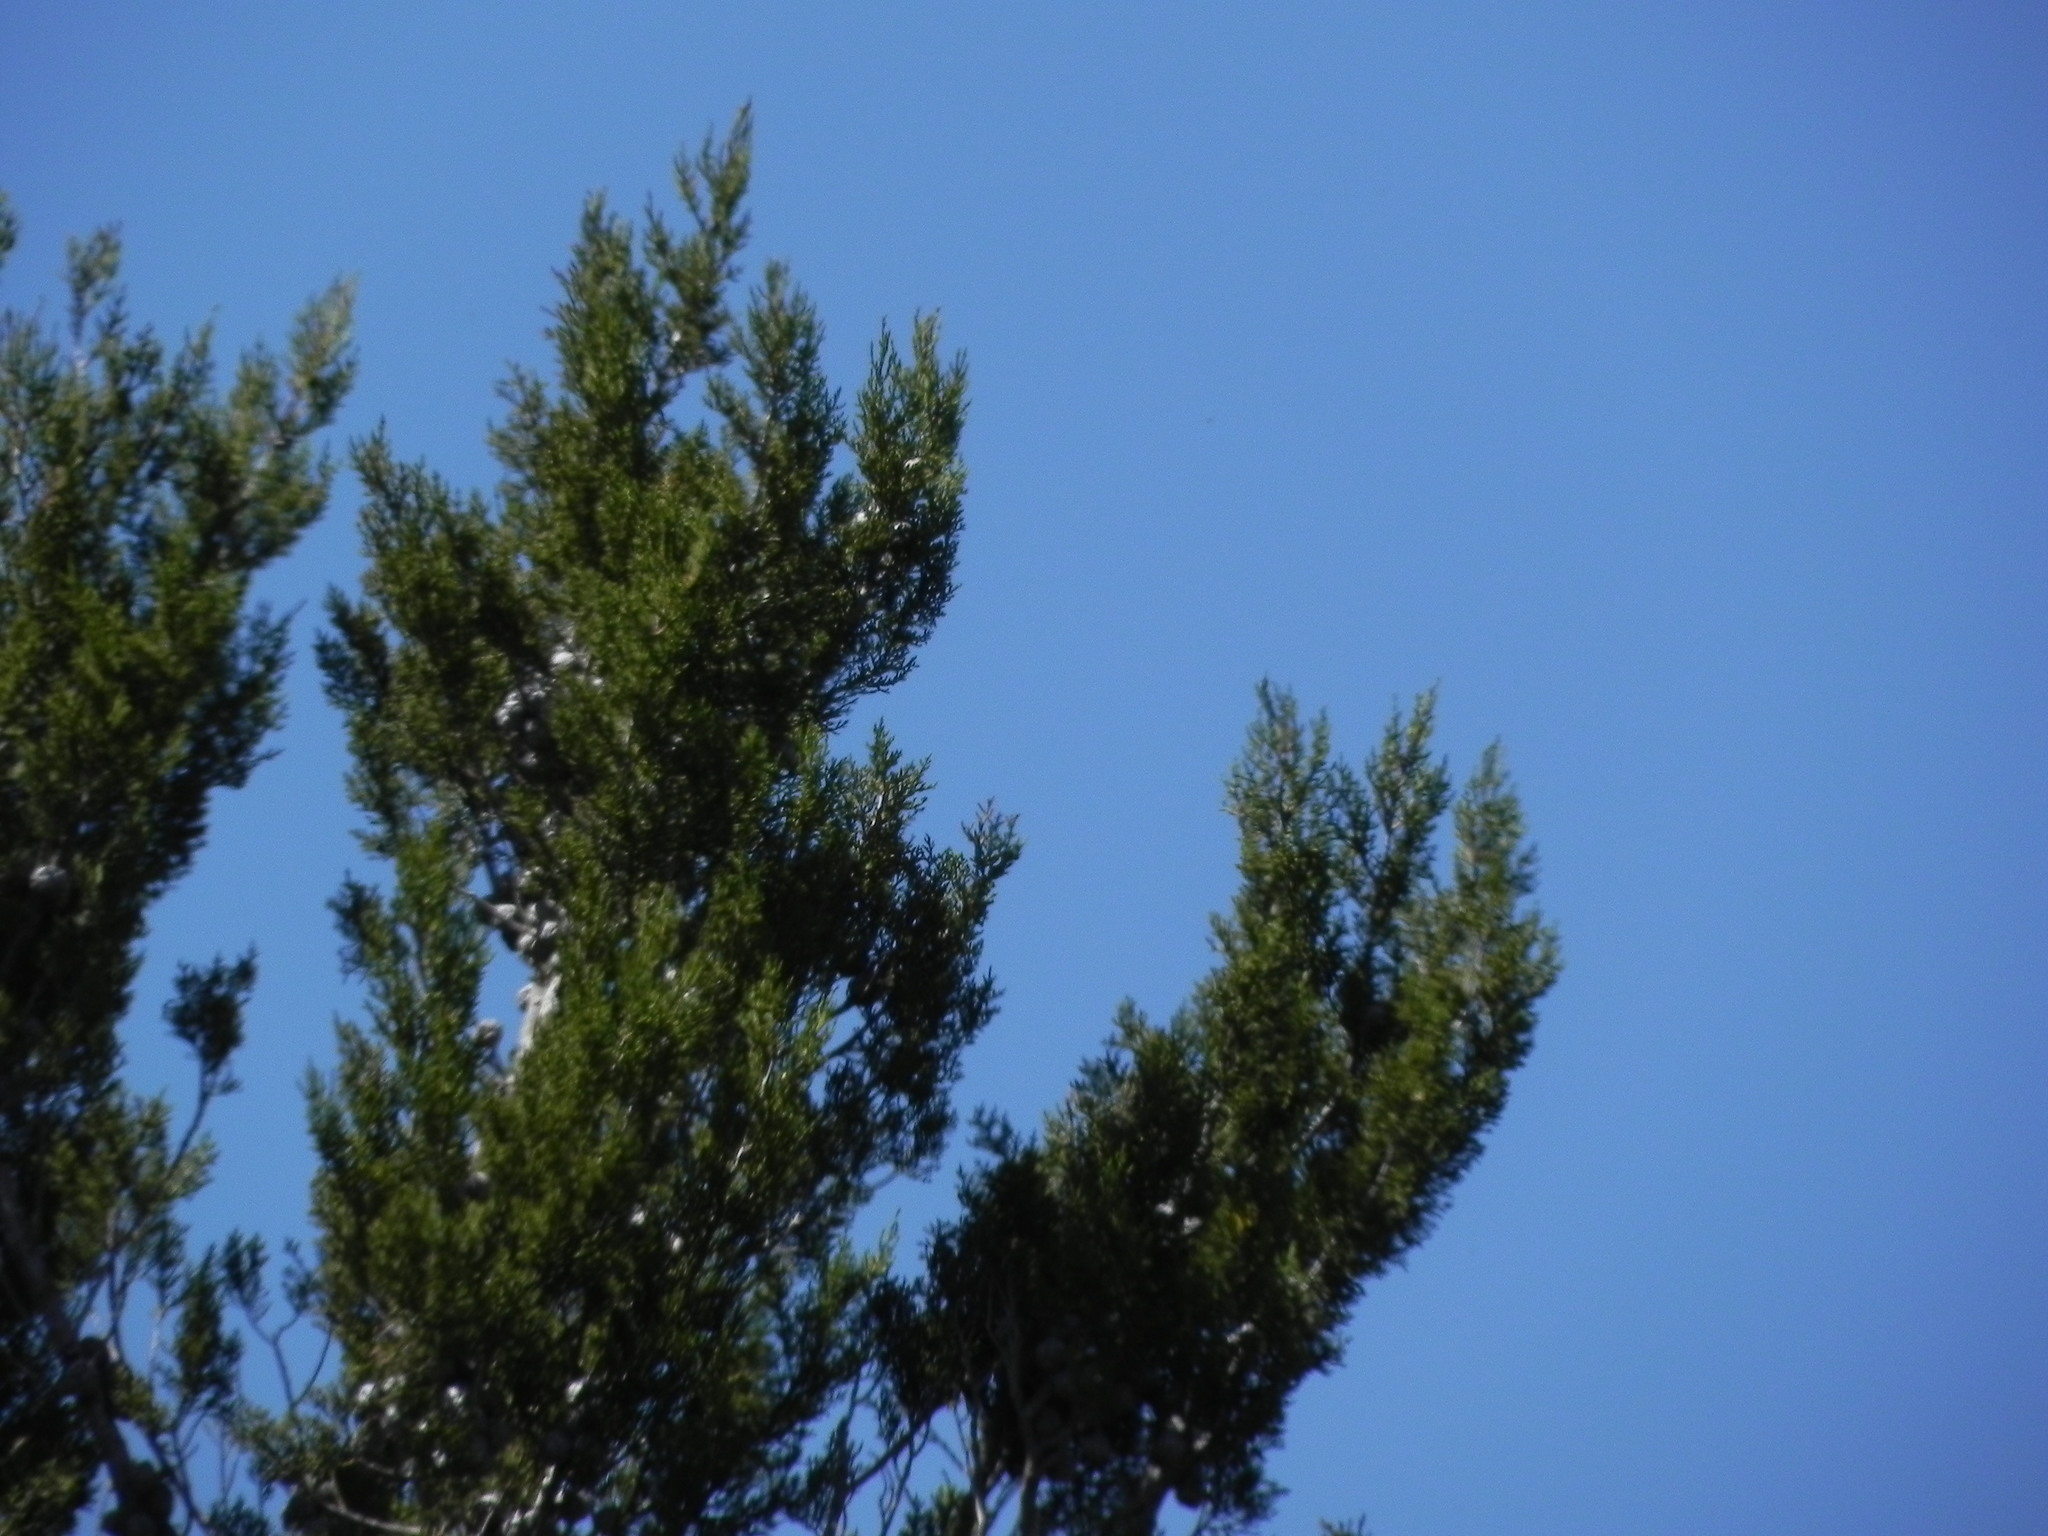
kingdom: Plantae
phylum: Tracheophyta
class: Pinopsida
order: Pinales
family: Cupressaceae
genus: Cupressus
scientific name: Cupressus guadalupensis
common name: Forbes cypress
